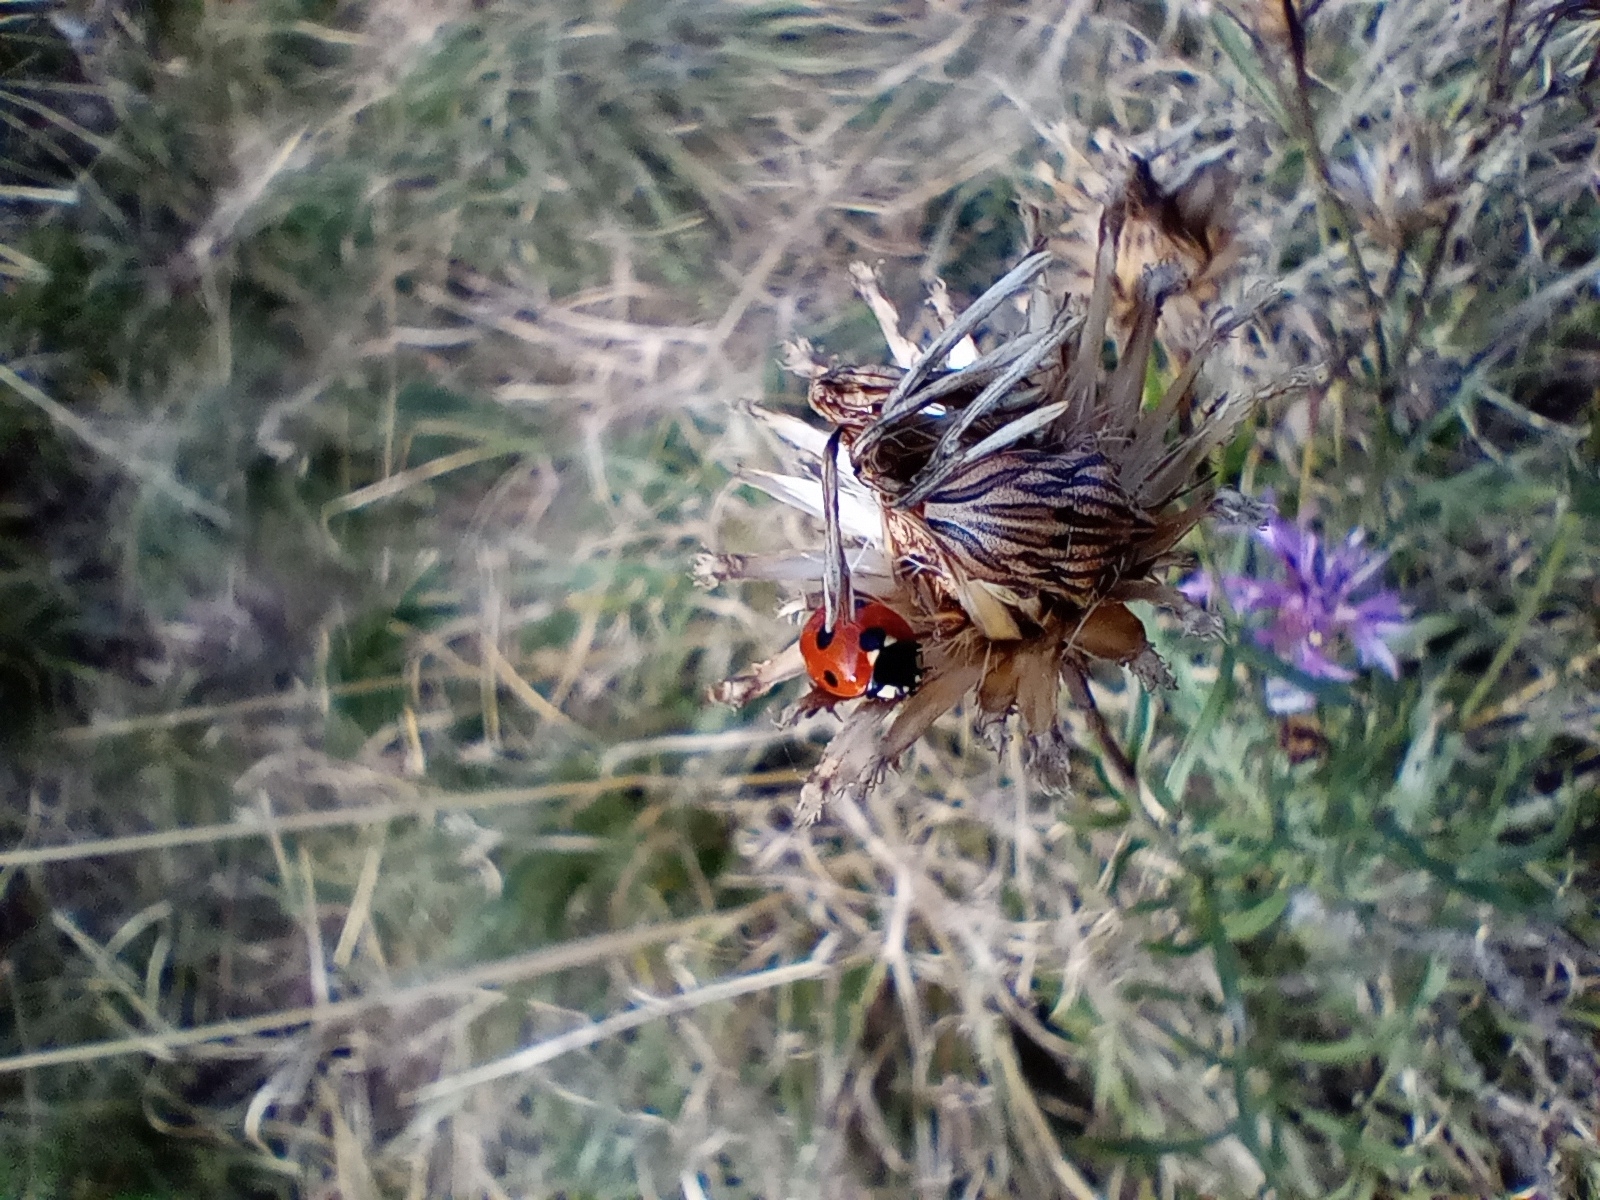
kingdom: Animalia
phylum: Arthropoda
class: Insecta
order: Coleoptera
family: Coccinellidae
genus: Coccinella
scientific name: Coccinella septempunctata
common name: Sevenspotted lady beetle
